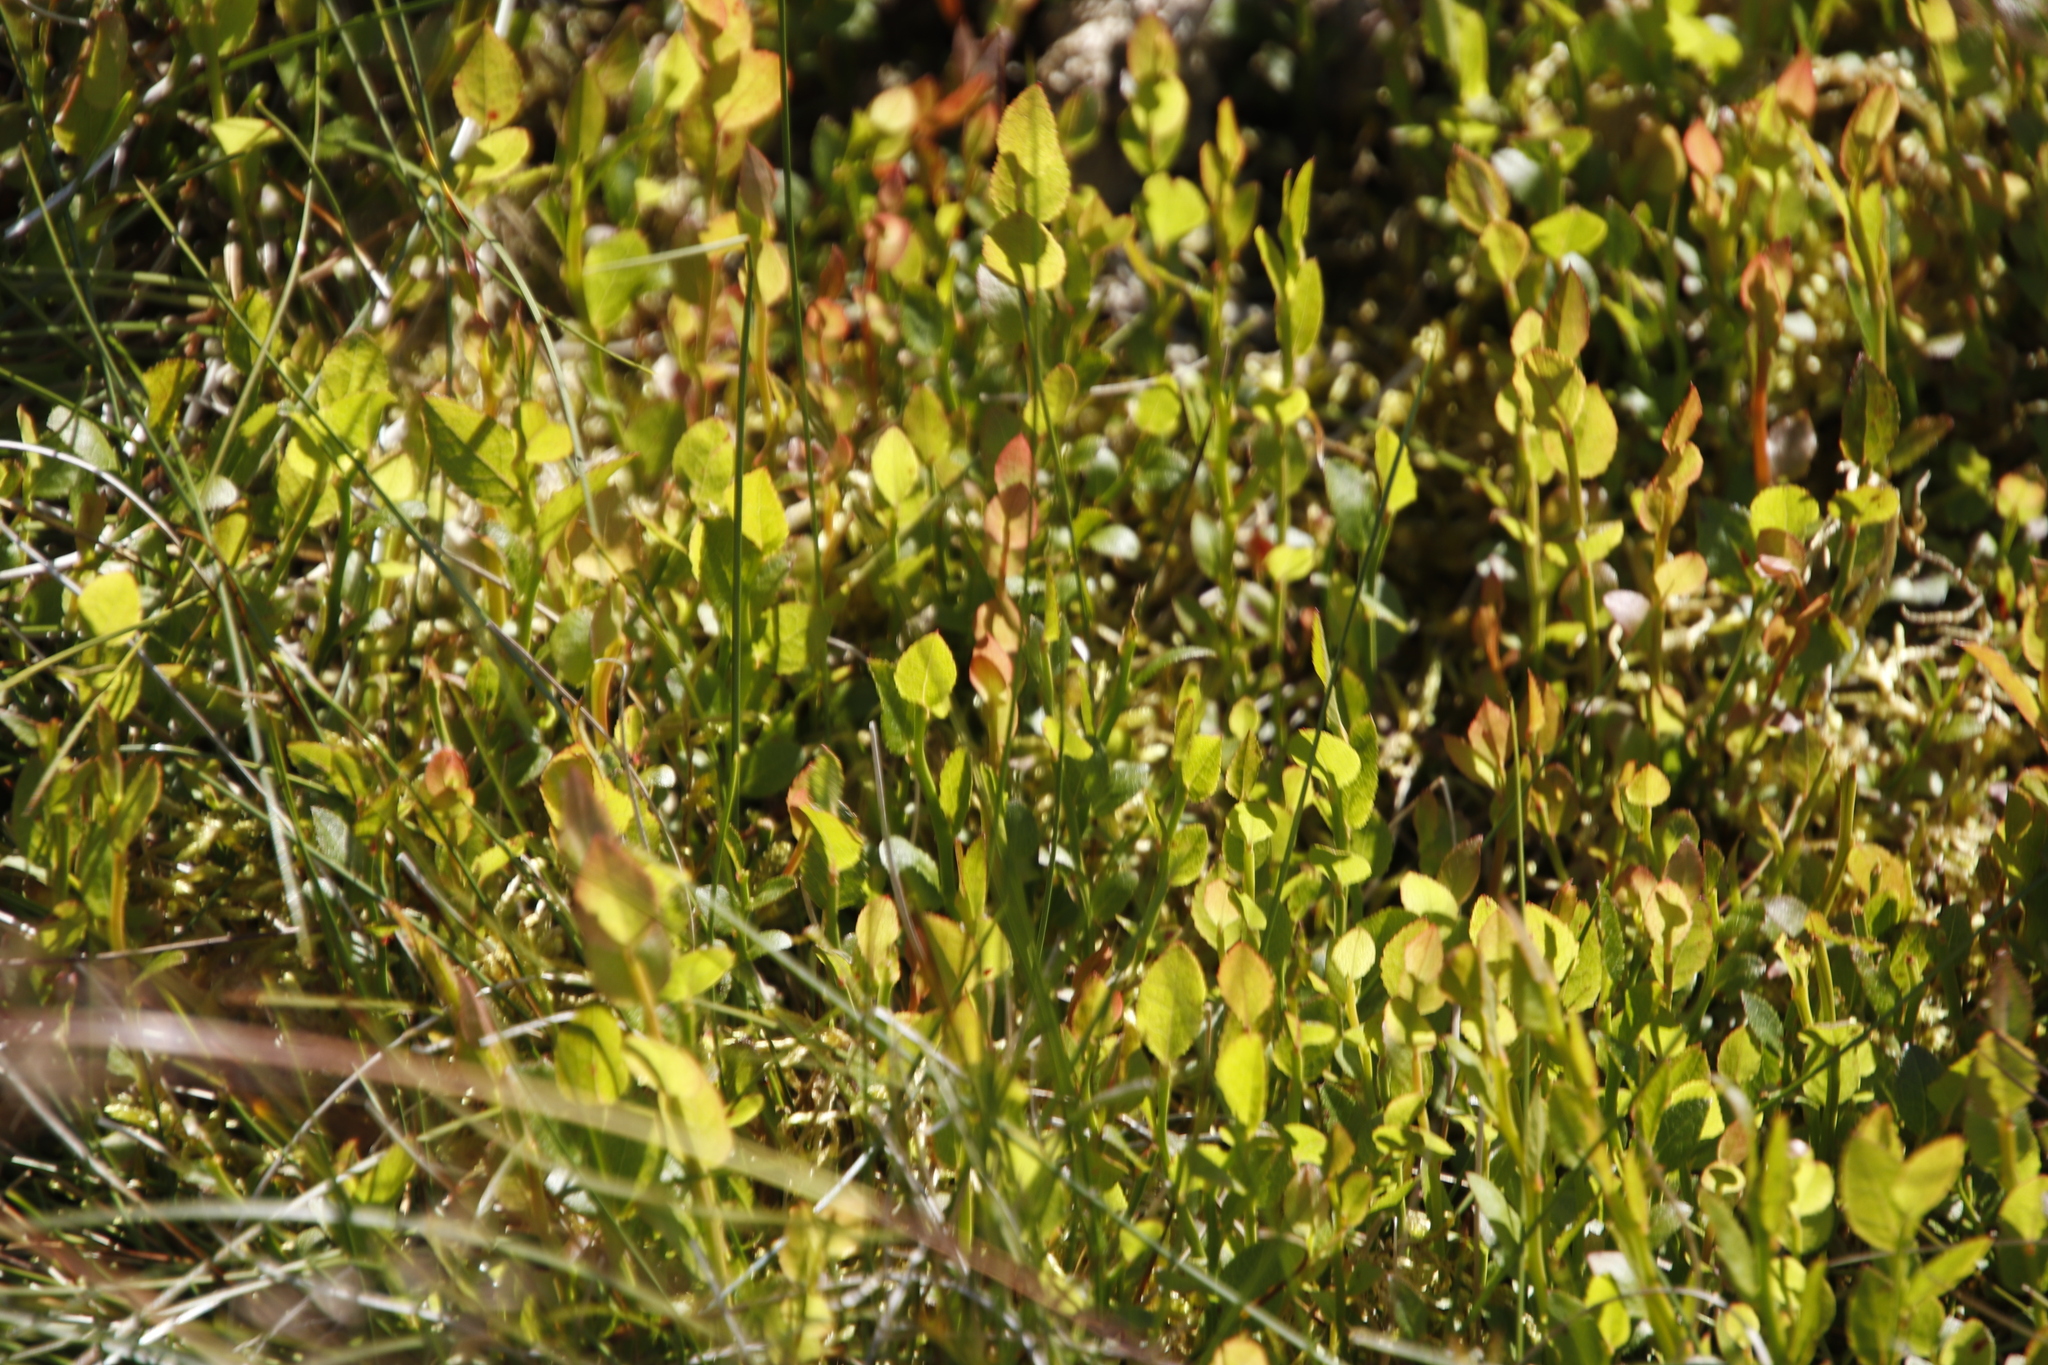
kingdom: Plantae
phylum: Tracheophyta
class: Magnoliopsida
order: Ericales
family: Ericaceae
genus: Vaccinium
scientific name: Vaccinium myrtillus
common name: Bilberry
